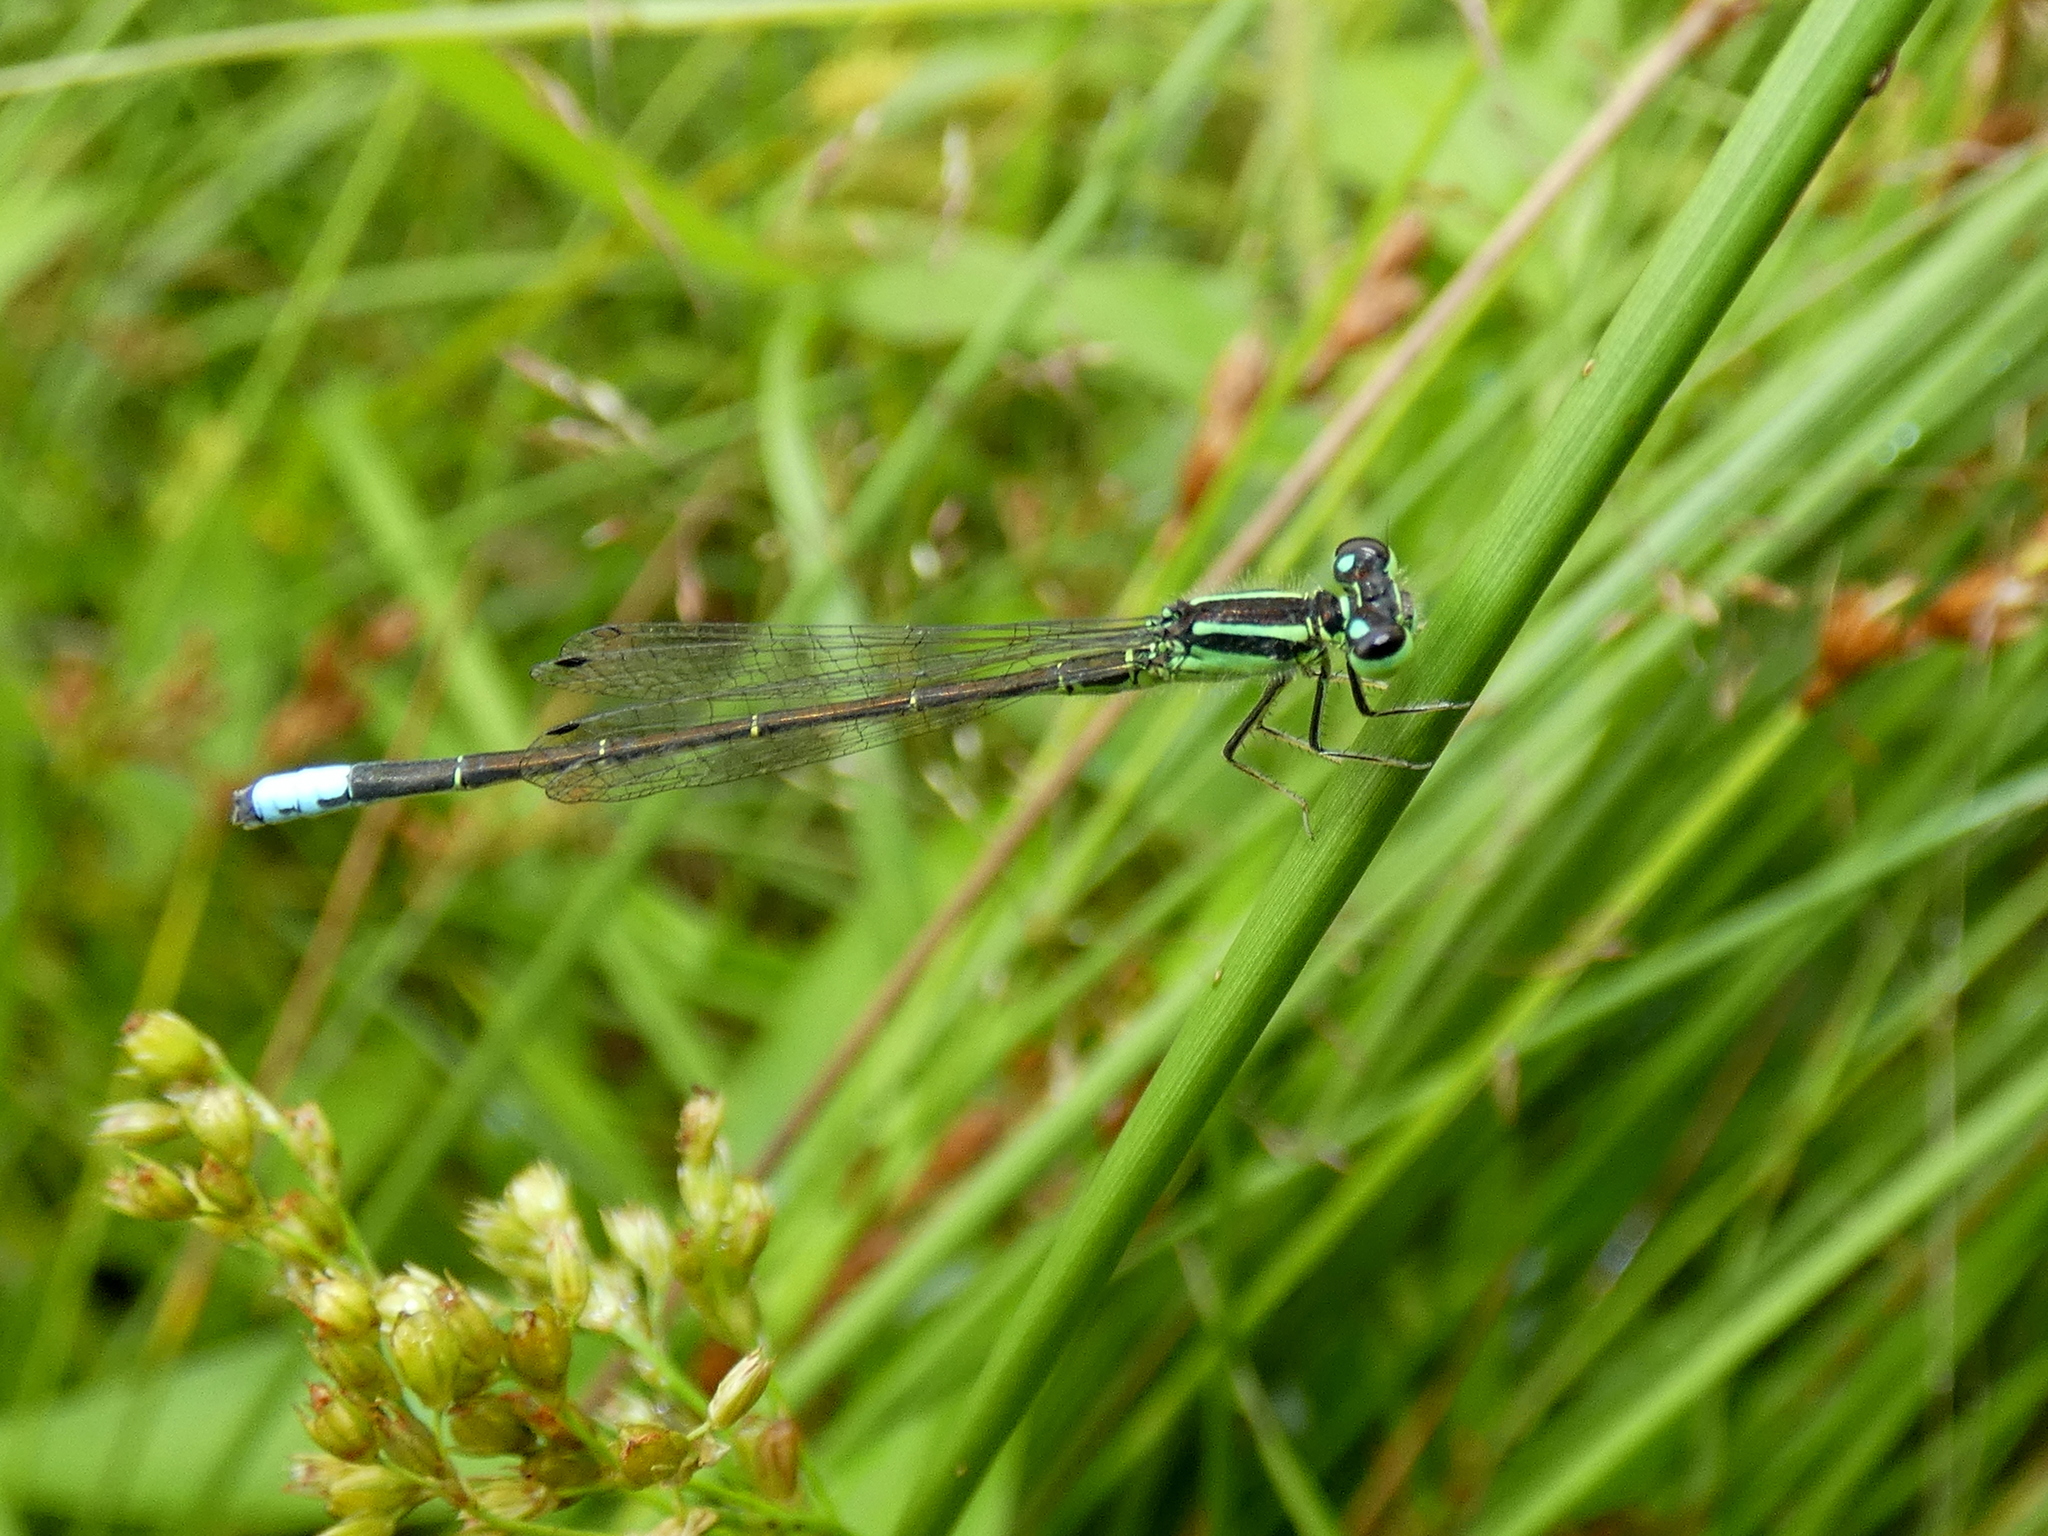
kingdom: Animalia
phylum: Arthropoda
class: Insecta
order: Odonata
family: Coenagrionidae
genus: Ischnura
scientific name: Ischnura verticalis
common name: Eastern forktail
